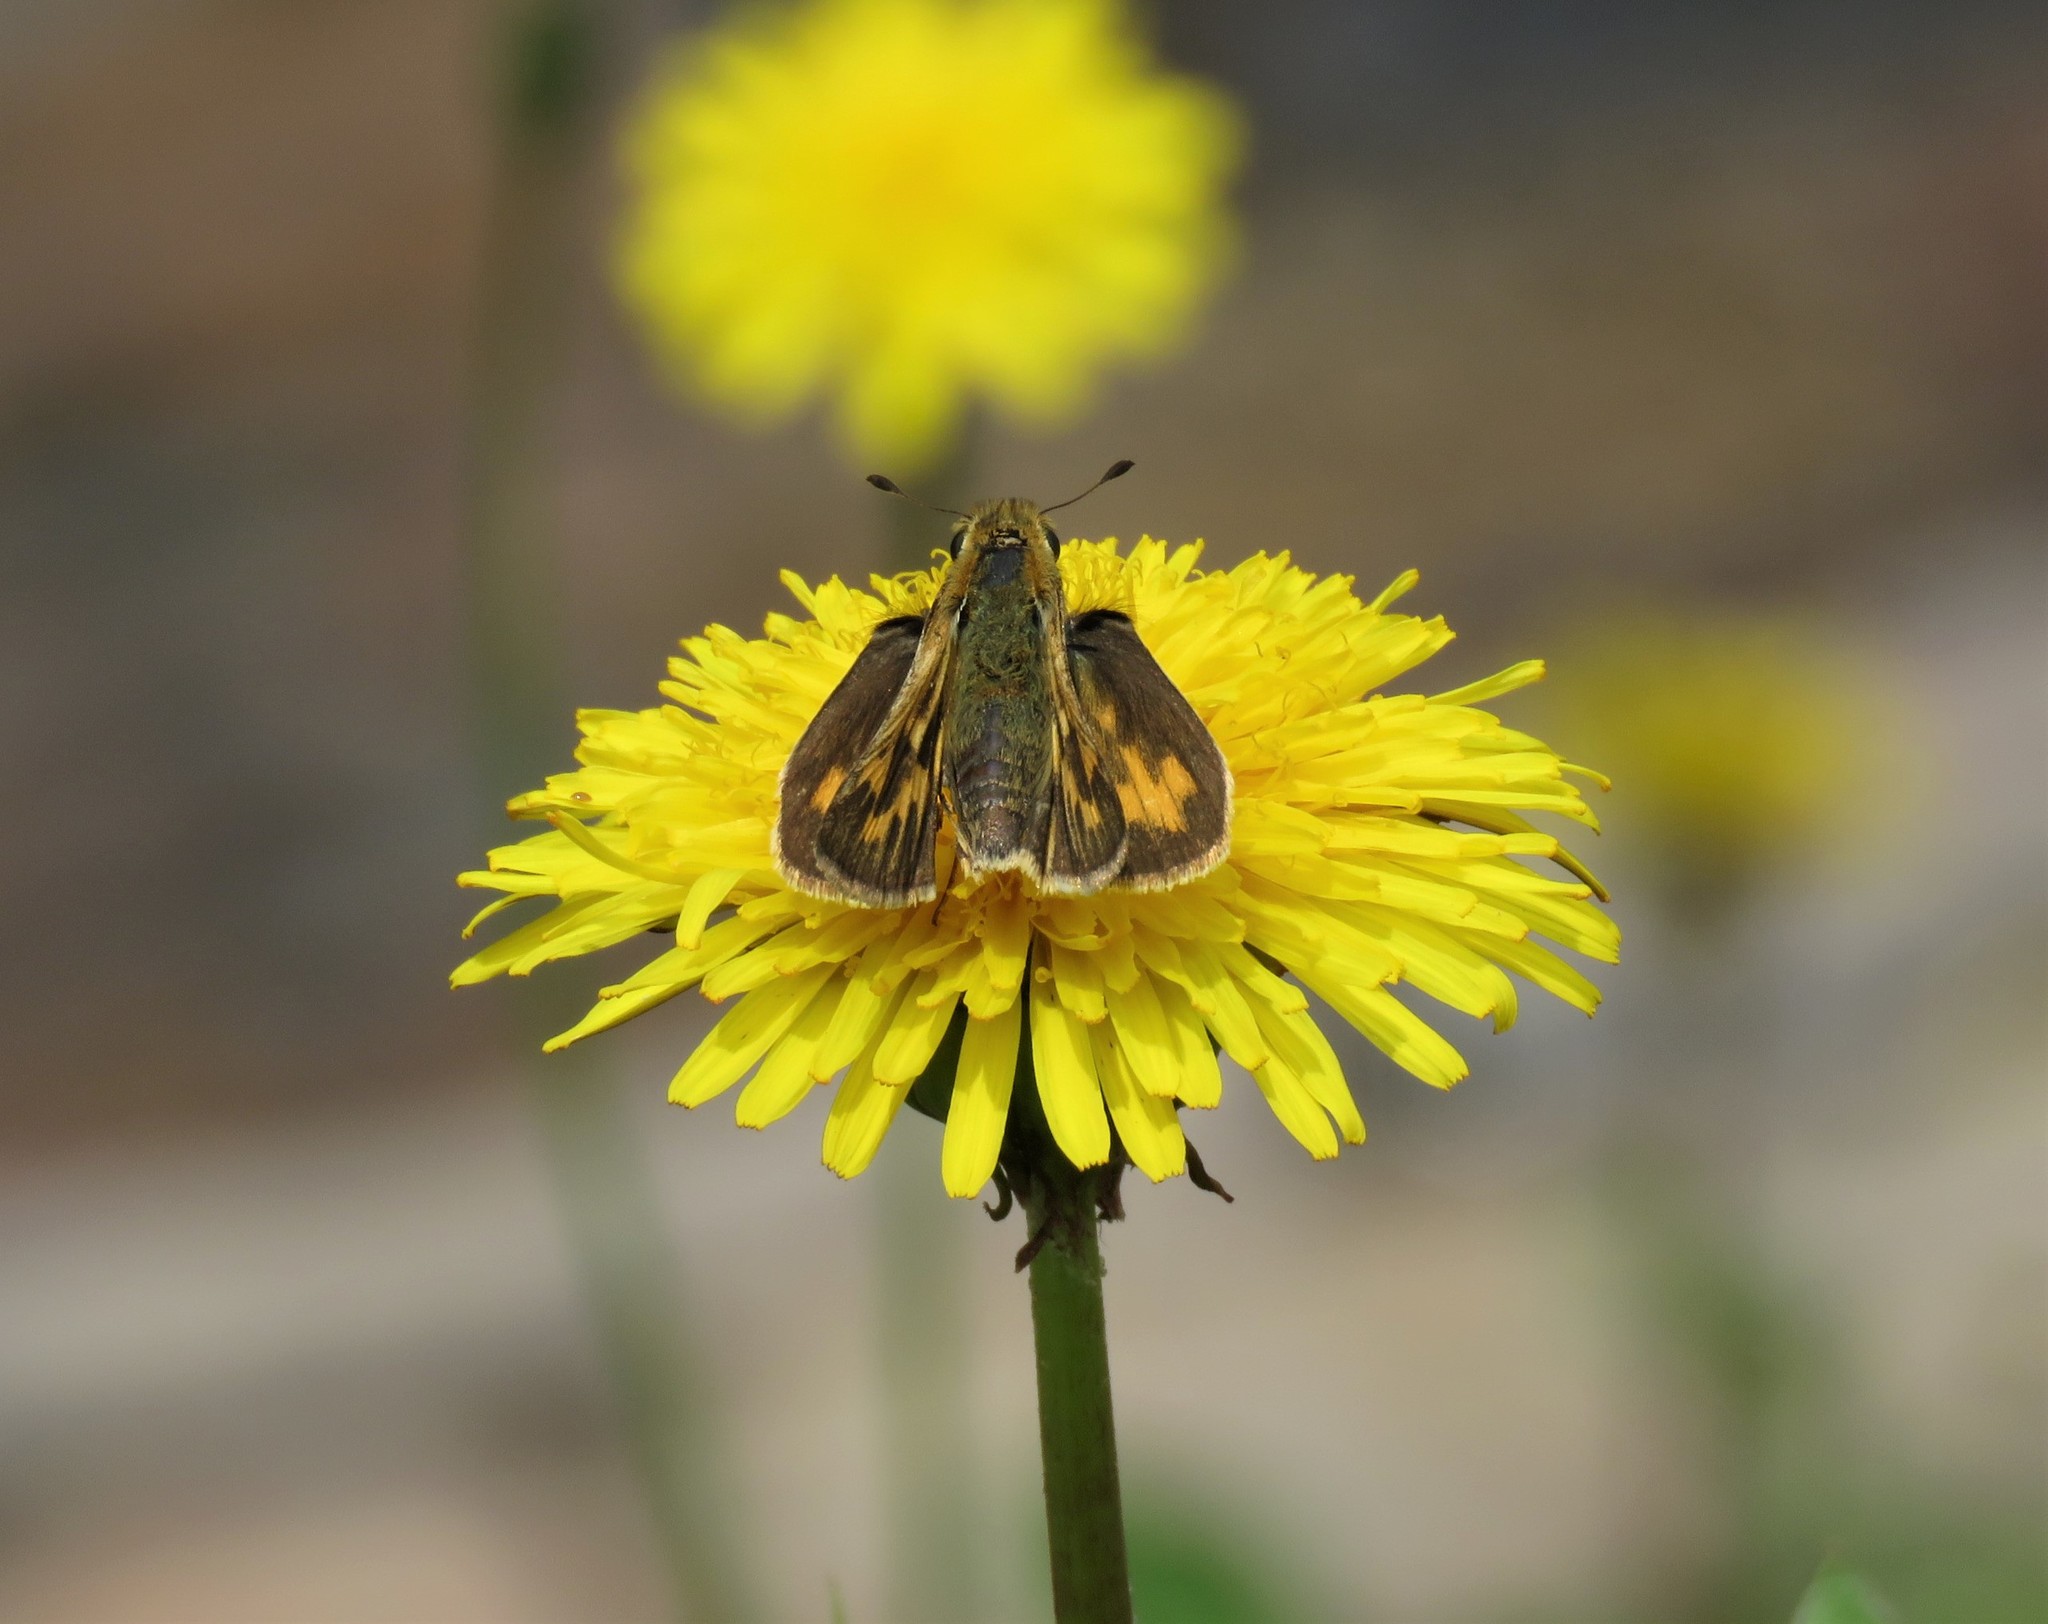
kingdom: Animalia
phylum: Arthropoda
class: Insecta
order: Lepidoptera
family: Hesperiidae
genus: Hylephila
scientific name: Hylephila phyleus
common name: Fiery skipper
